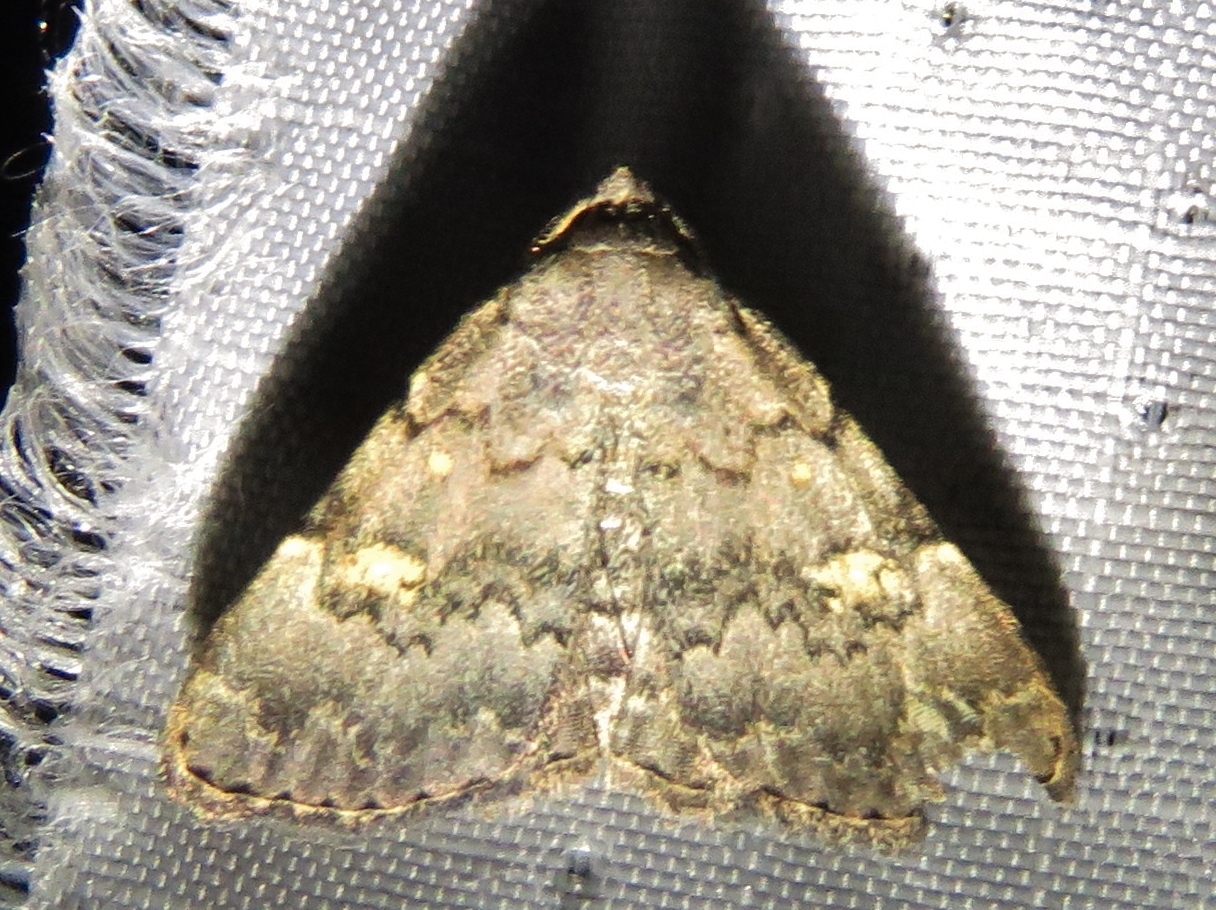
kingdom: Animalia
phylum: Arthropoda
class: Insecta
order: Lepidoptera
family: Erebidae
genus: Idia
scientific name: Idia aemula
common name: Common idia moth
